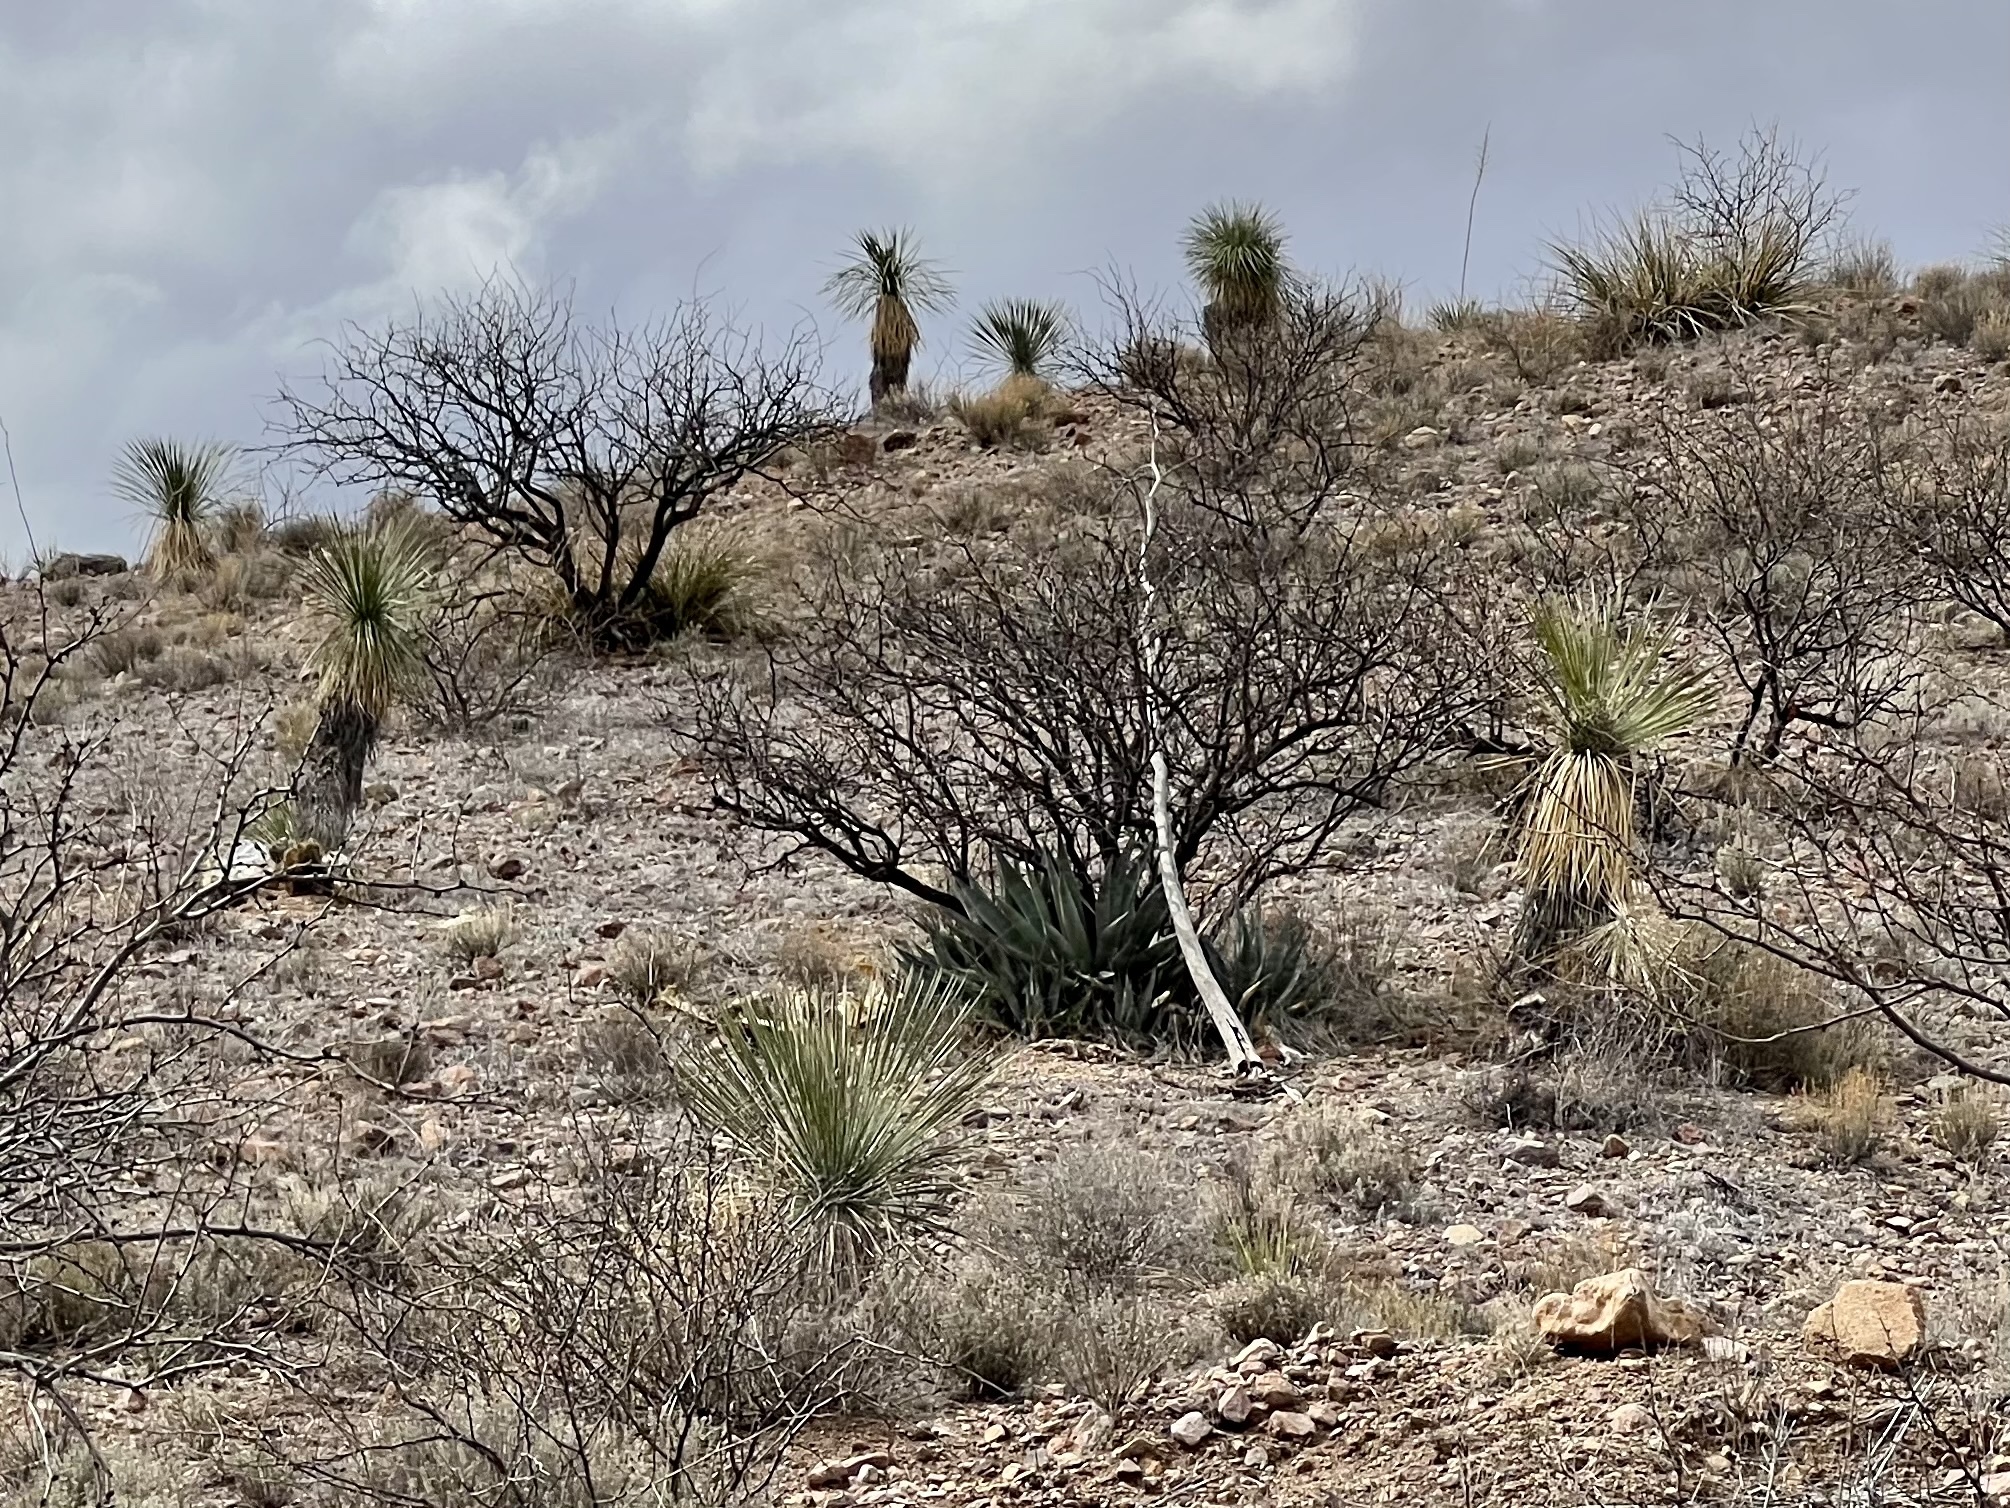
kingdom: Plantae
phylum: Tracheophyta
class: Liliopsida
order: Asparagales
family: Asparagaceae
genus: Yucca
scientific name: Yucca elata
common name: Palmella
